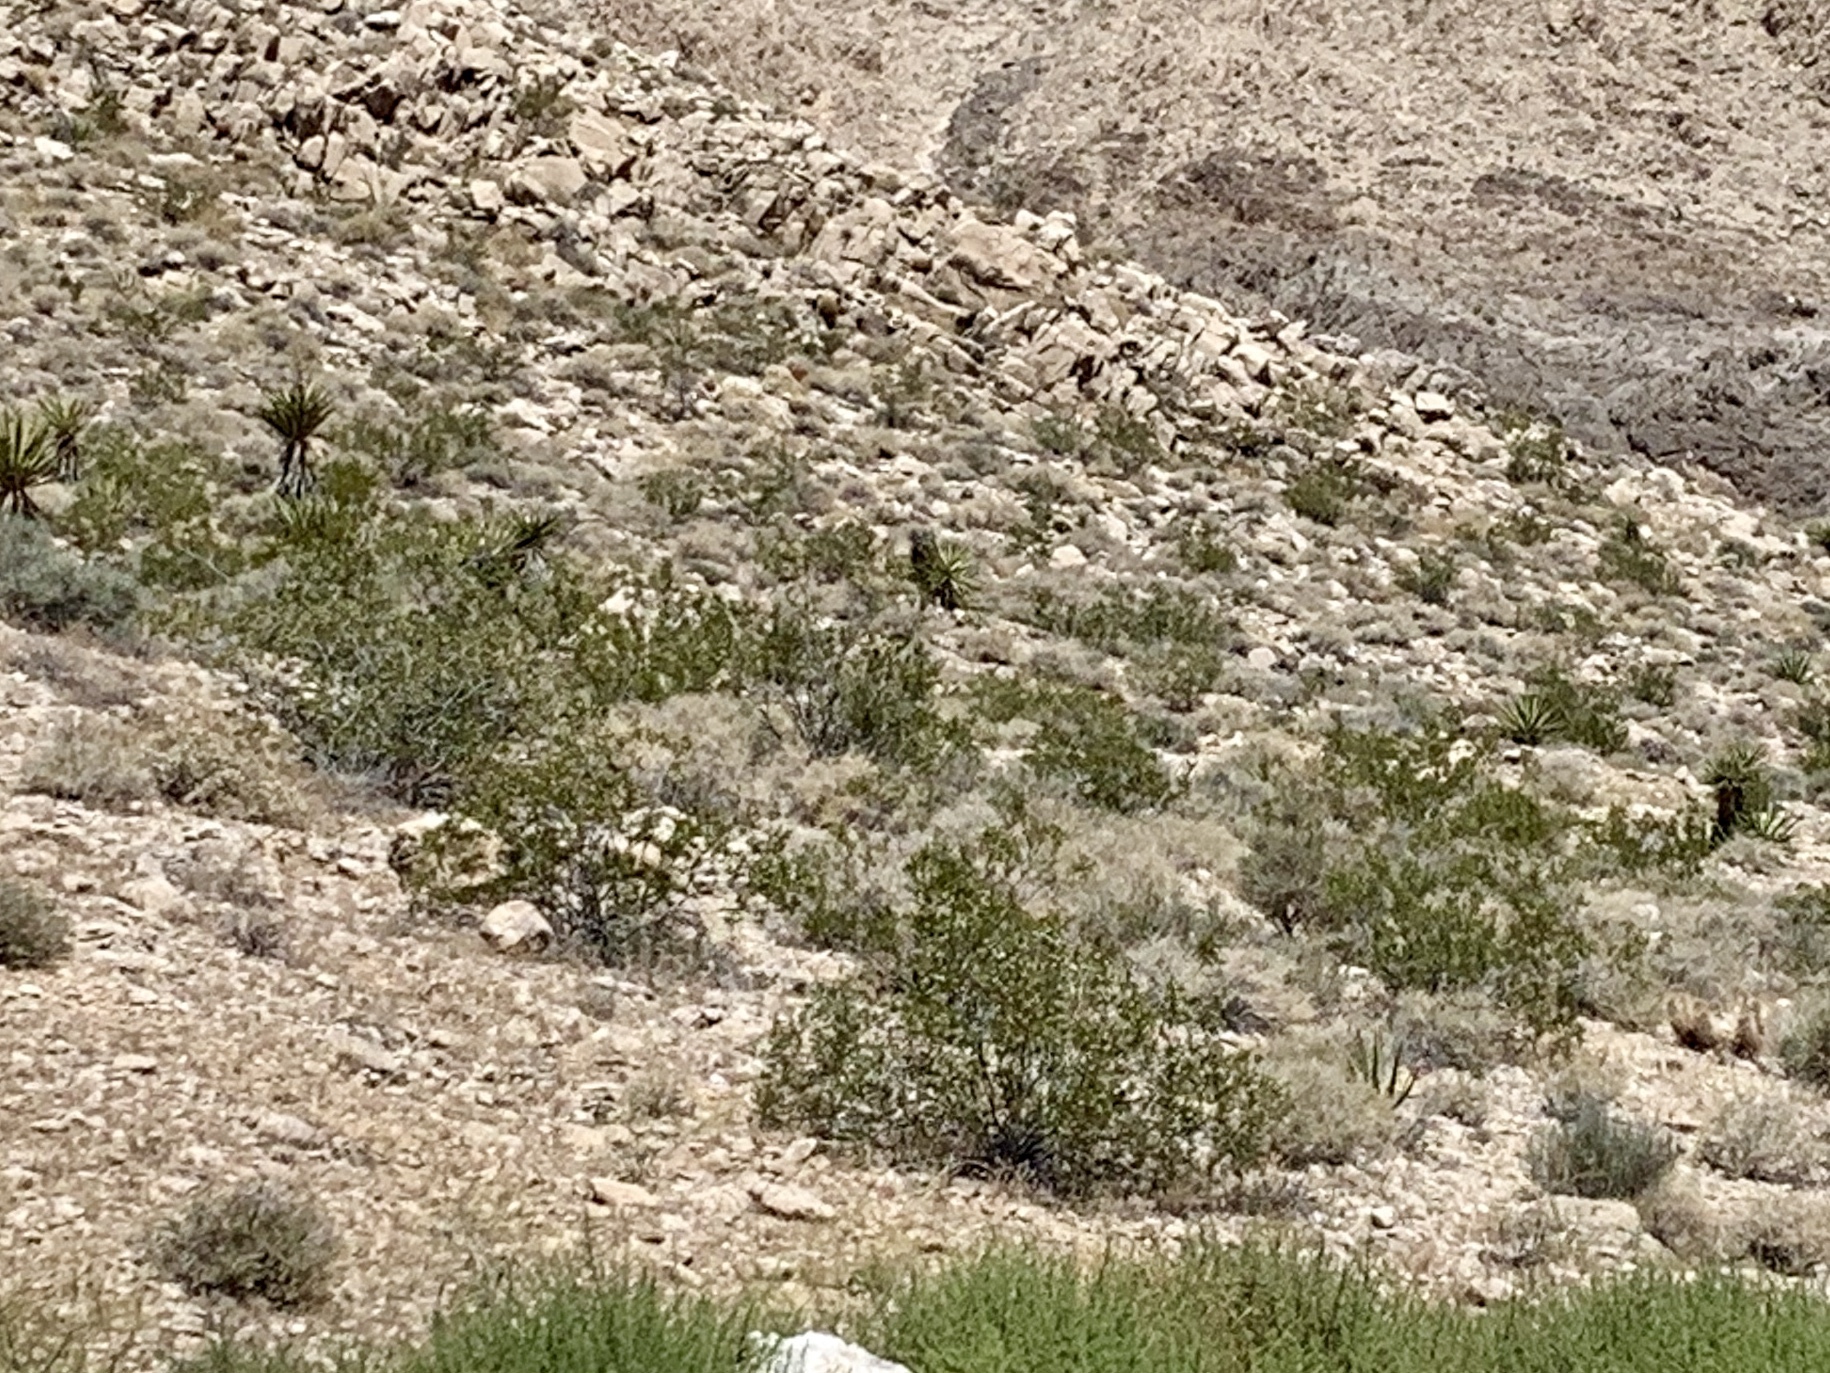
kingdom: Plantae
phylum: Tracheophyta
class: Magnoliopsida
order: Zygophyllales
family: Zygophyllaceae
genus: Larrea
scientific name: Larrea tridentata
